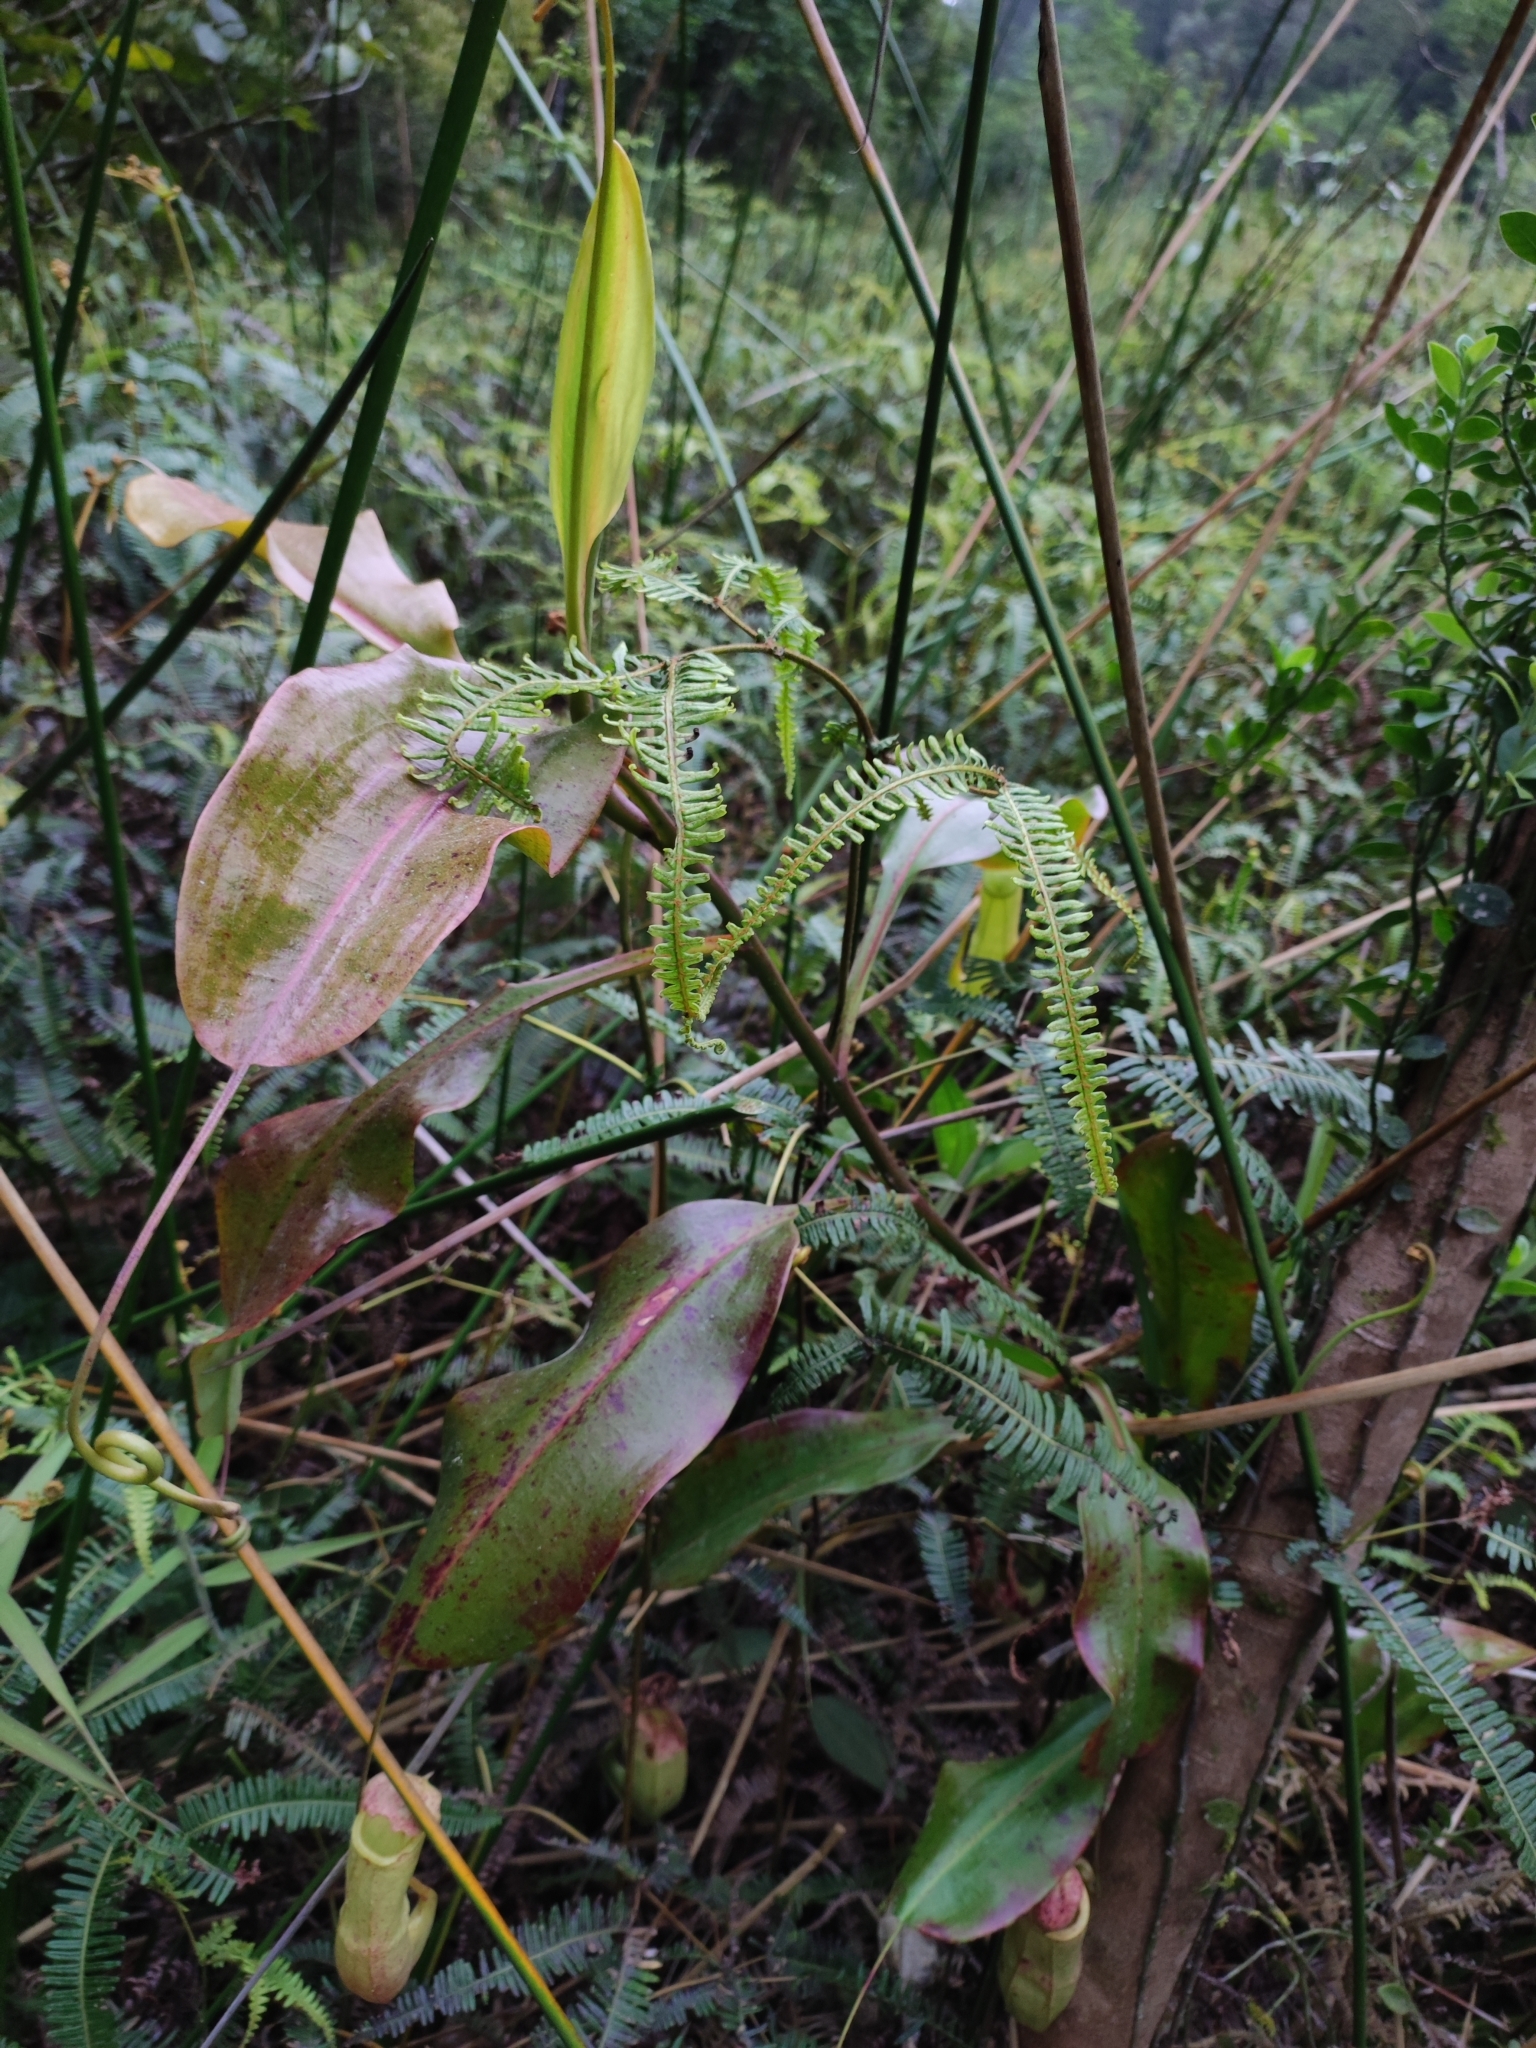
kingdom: Plantae
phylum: Tracheophyta
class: Magnoliopsida
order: Caryophyllales
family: Nepenthaceae
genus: Nepenthes
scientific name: Nepenthes mirabilis
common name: Tropical pitcherplant
